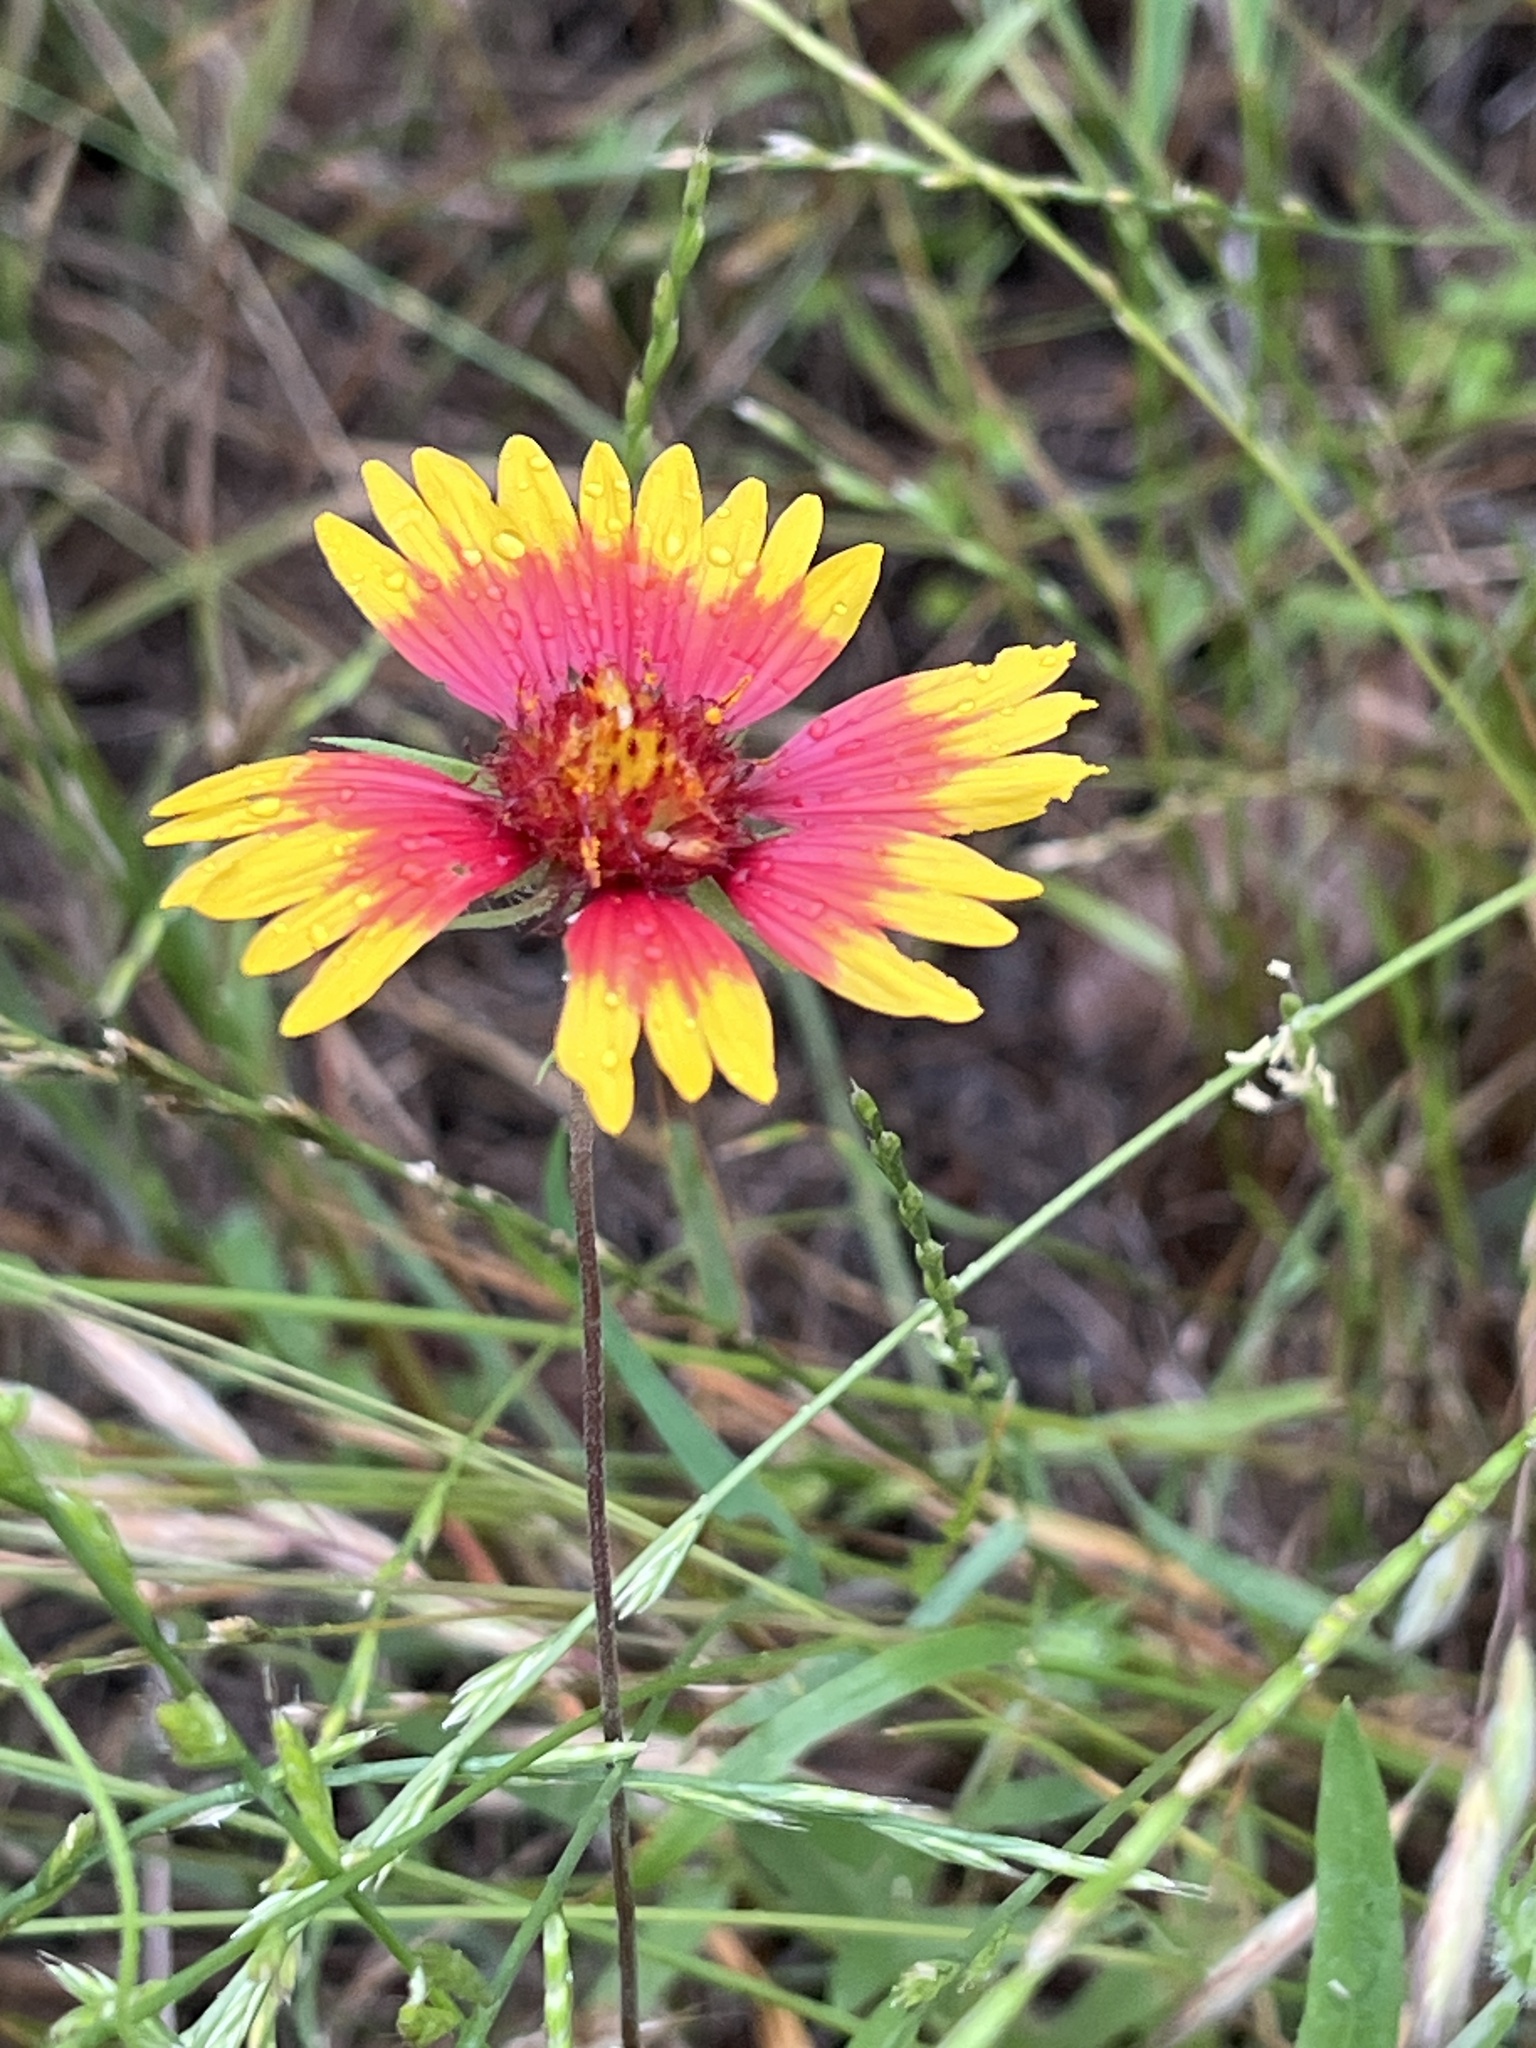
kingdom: Plantae
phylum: Tracheophyta
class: Magnoliopsida
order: Asterales
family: Asteraceae
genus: Gaillardia
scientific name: Gaillardia pulchella
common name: Firewheel
